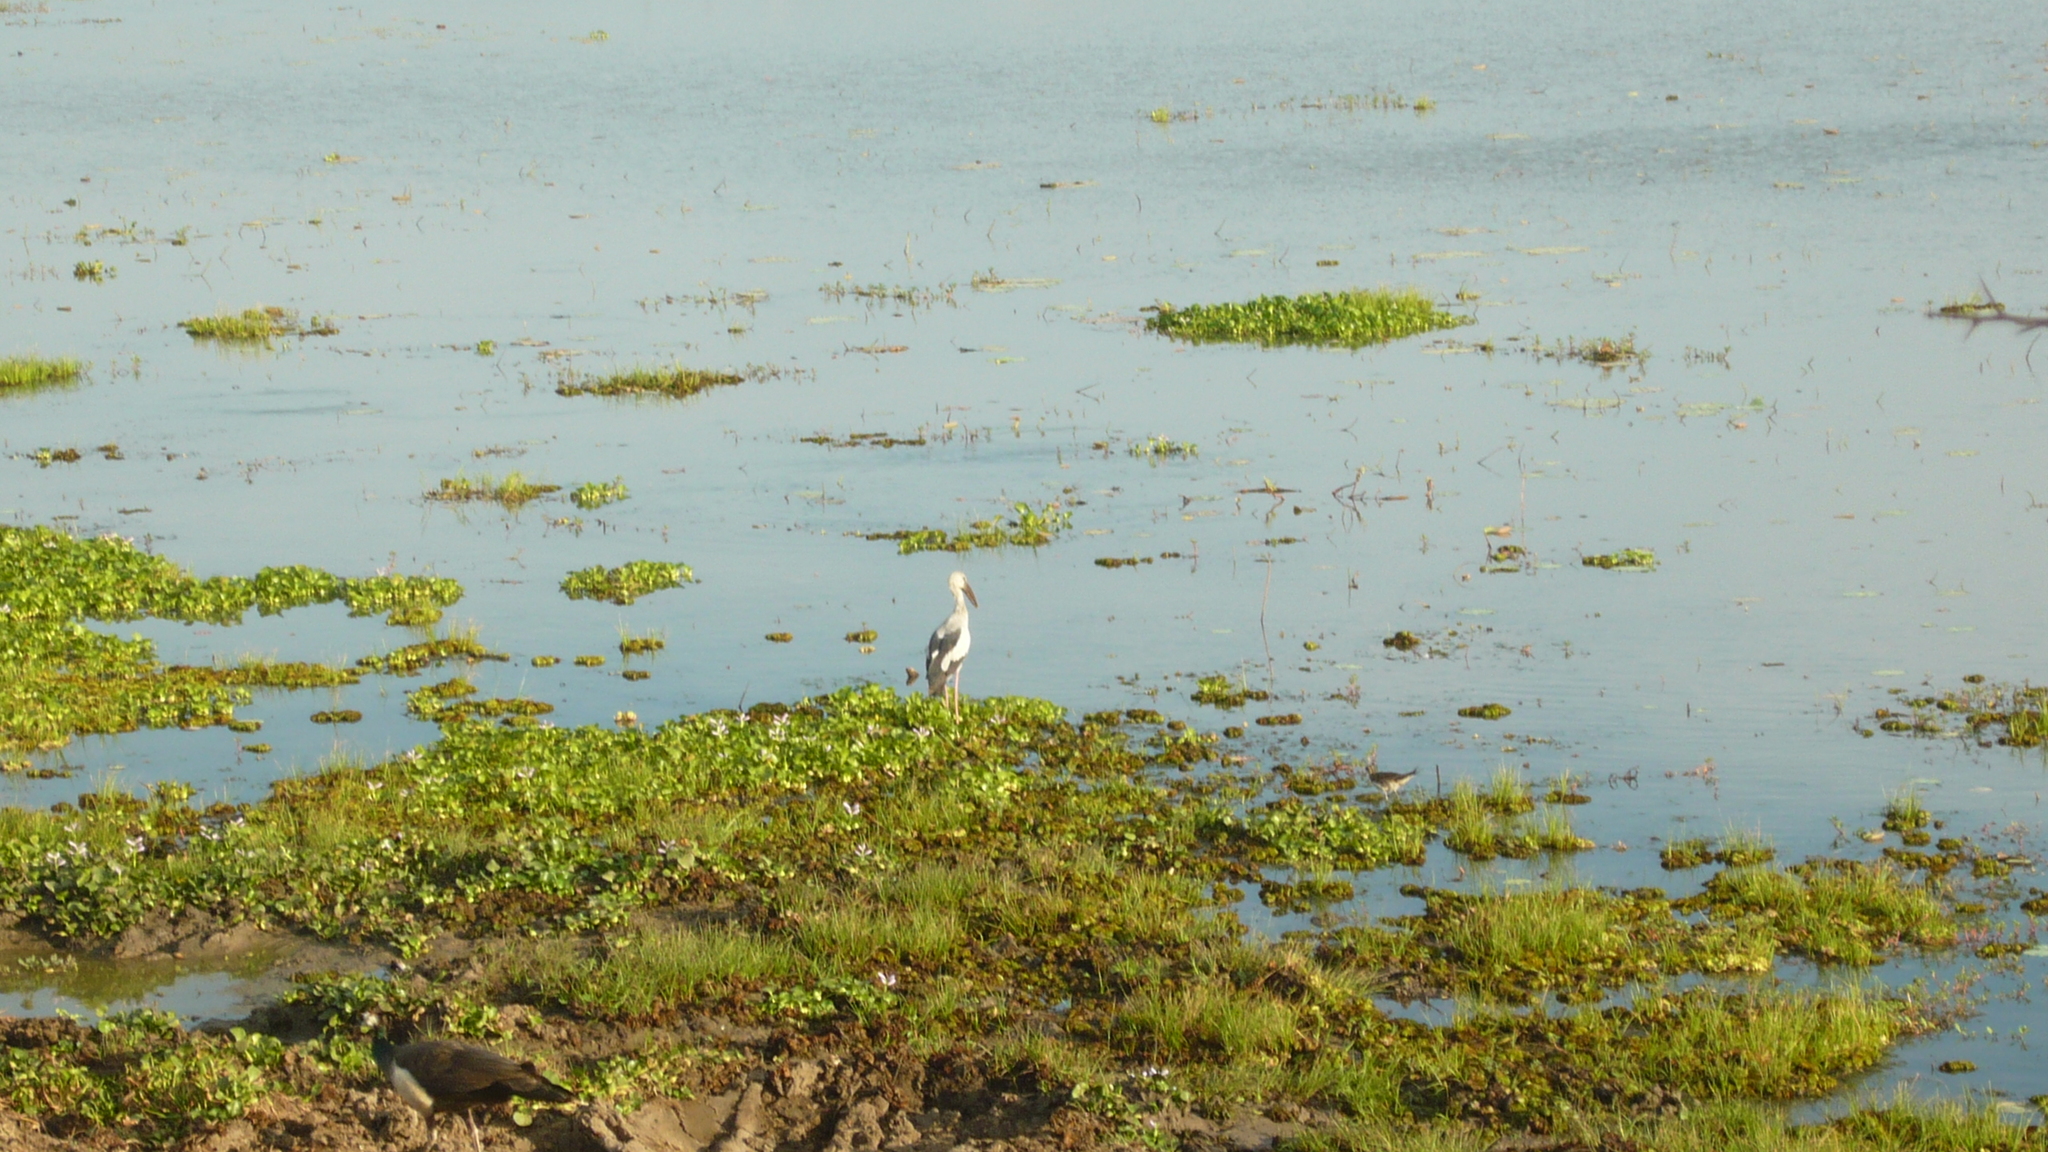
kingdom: Animalia
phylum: Chordata
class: Aves
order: Ciconiiformes
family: Ciconiidae
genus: Anastomus
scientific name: Anastomus oscitans
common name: Asian openbill
